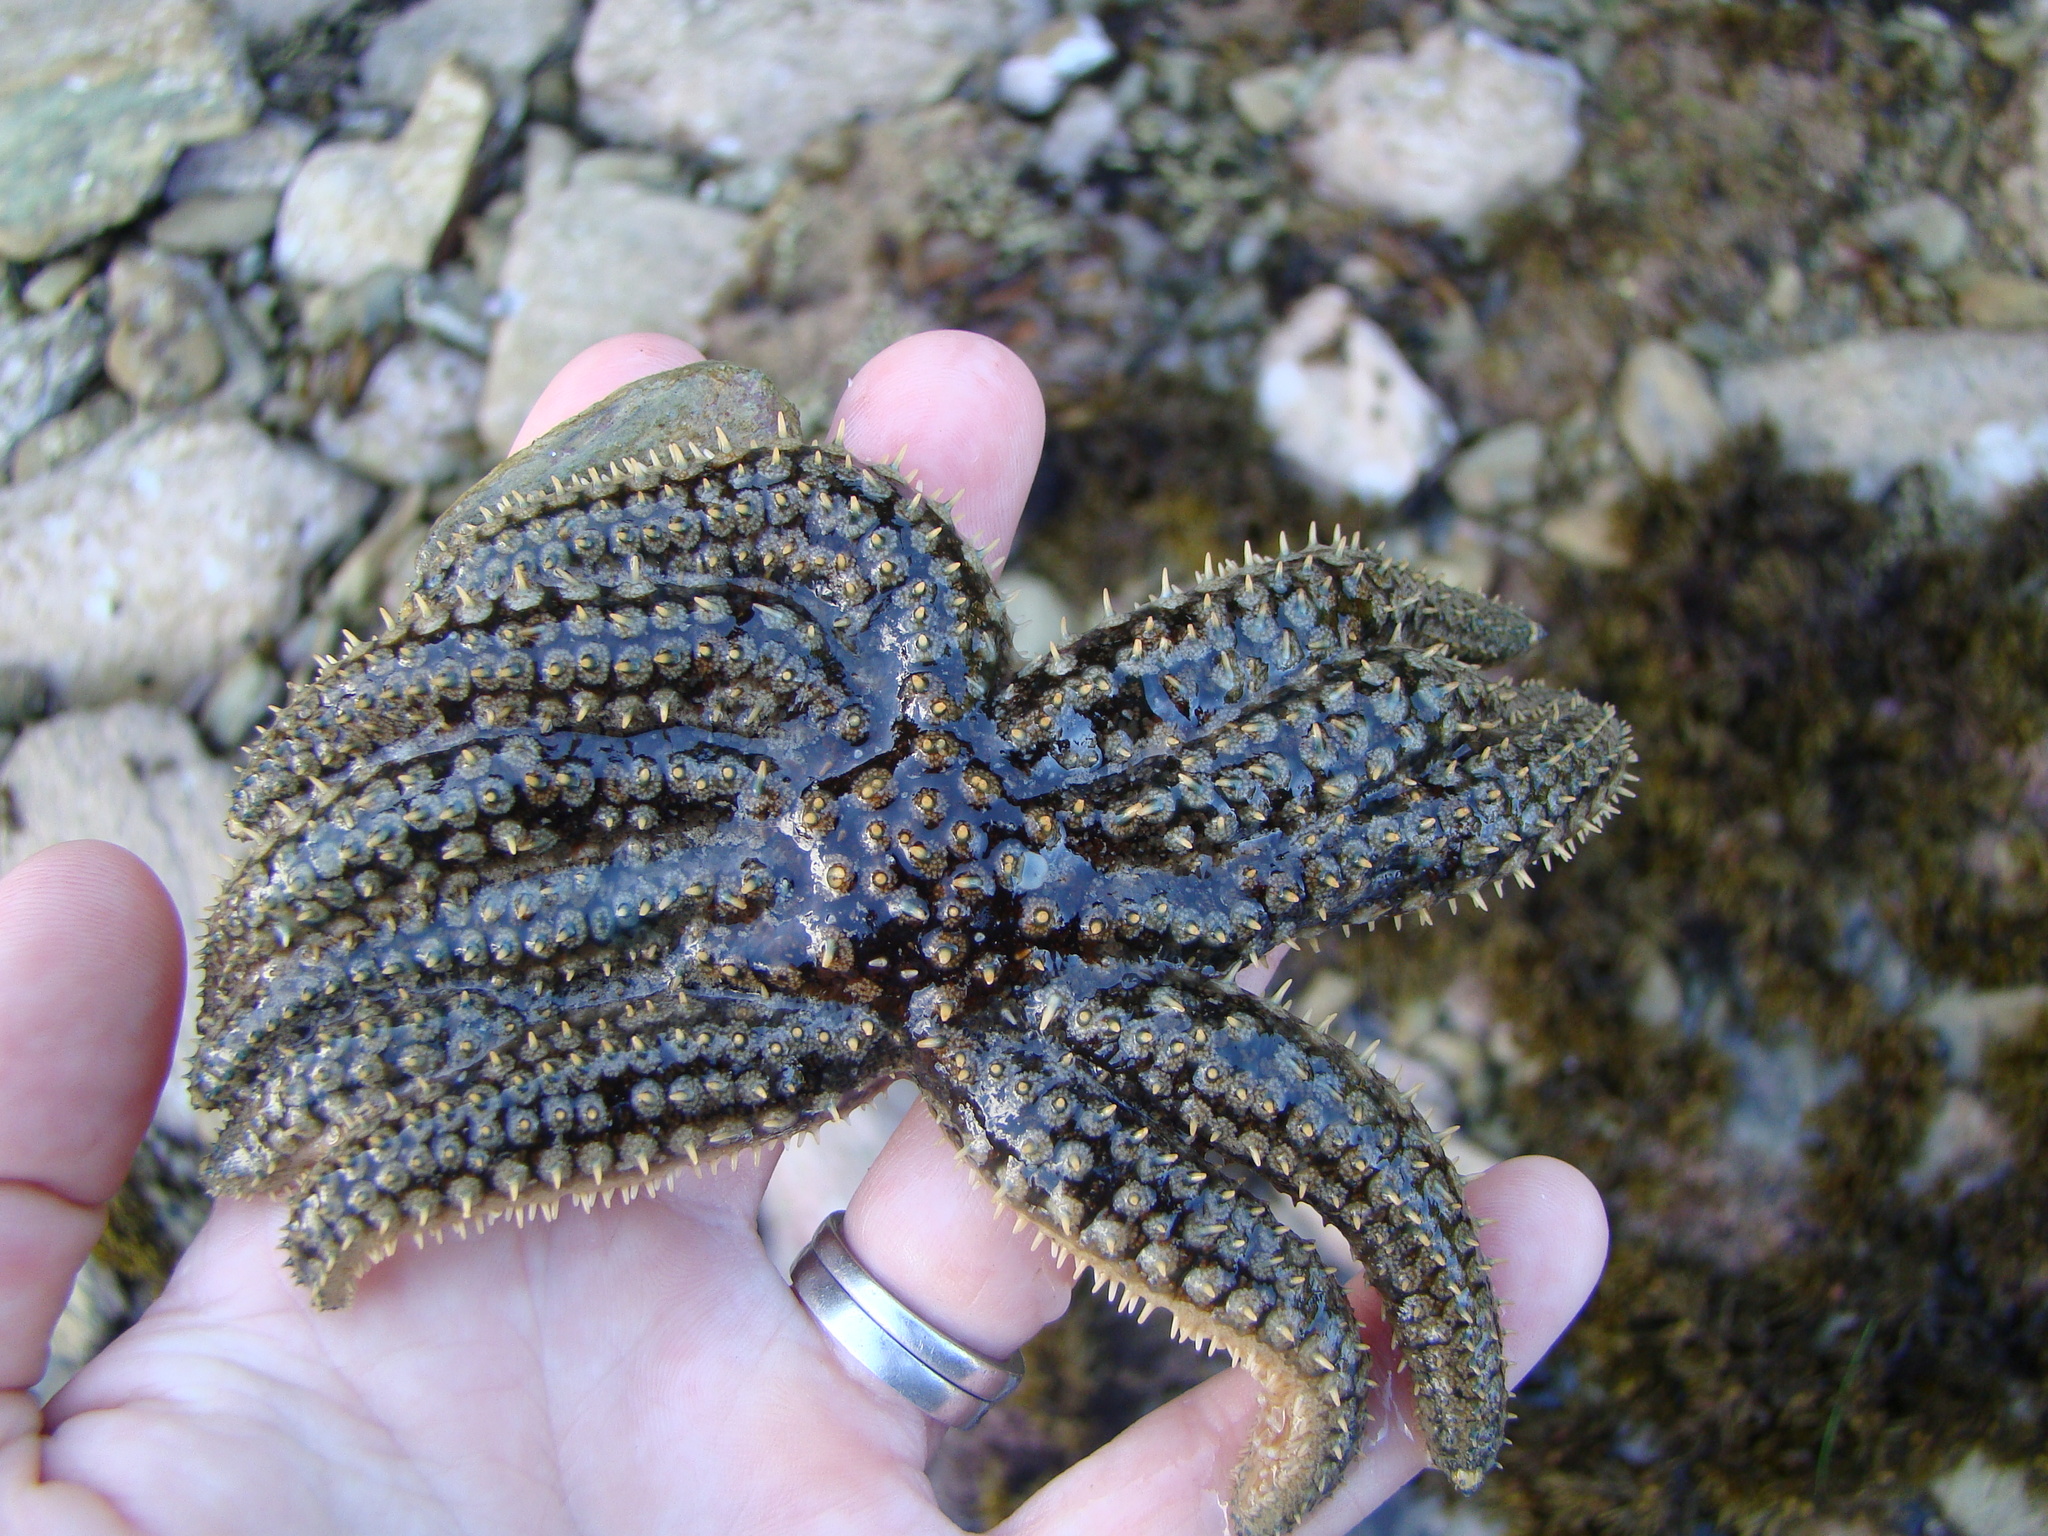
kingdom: Animalia
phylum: Echinodermata
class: Asteroidea
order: Forcipulatida
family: Asteriidae
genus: Coscinasterias
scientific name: Coscinasterias muricata
